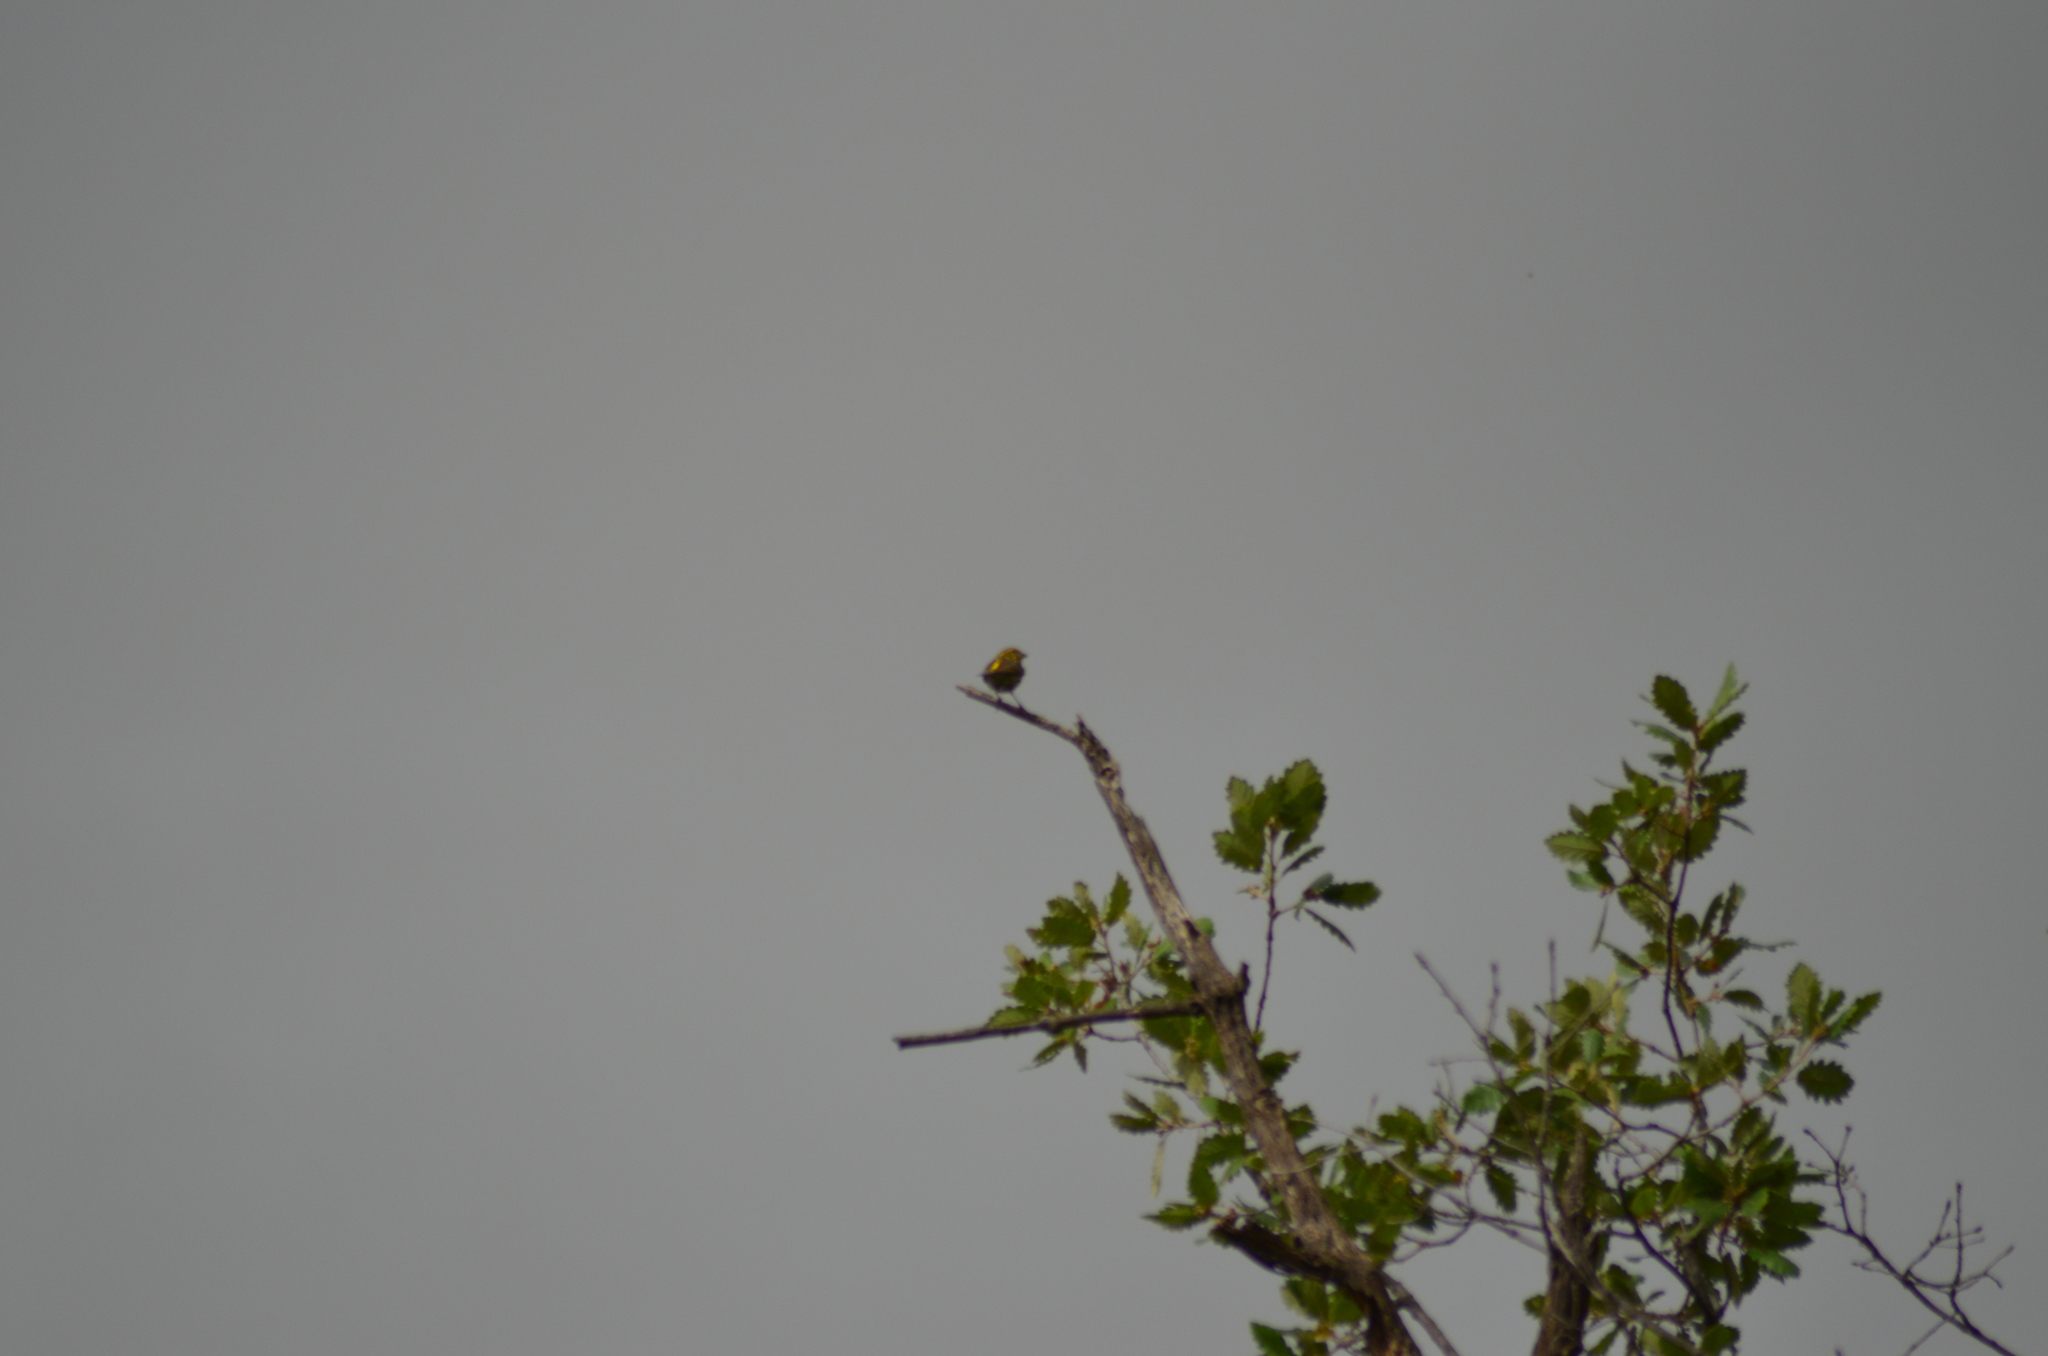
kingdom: Animalia
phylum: Chordata
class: Aves
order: Passeriformes
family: Fringillidae
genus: Serinus
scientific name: Serinus serinus
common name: European serin
